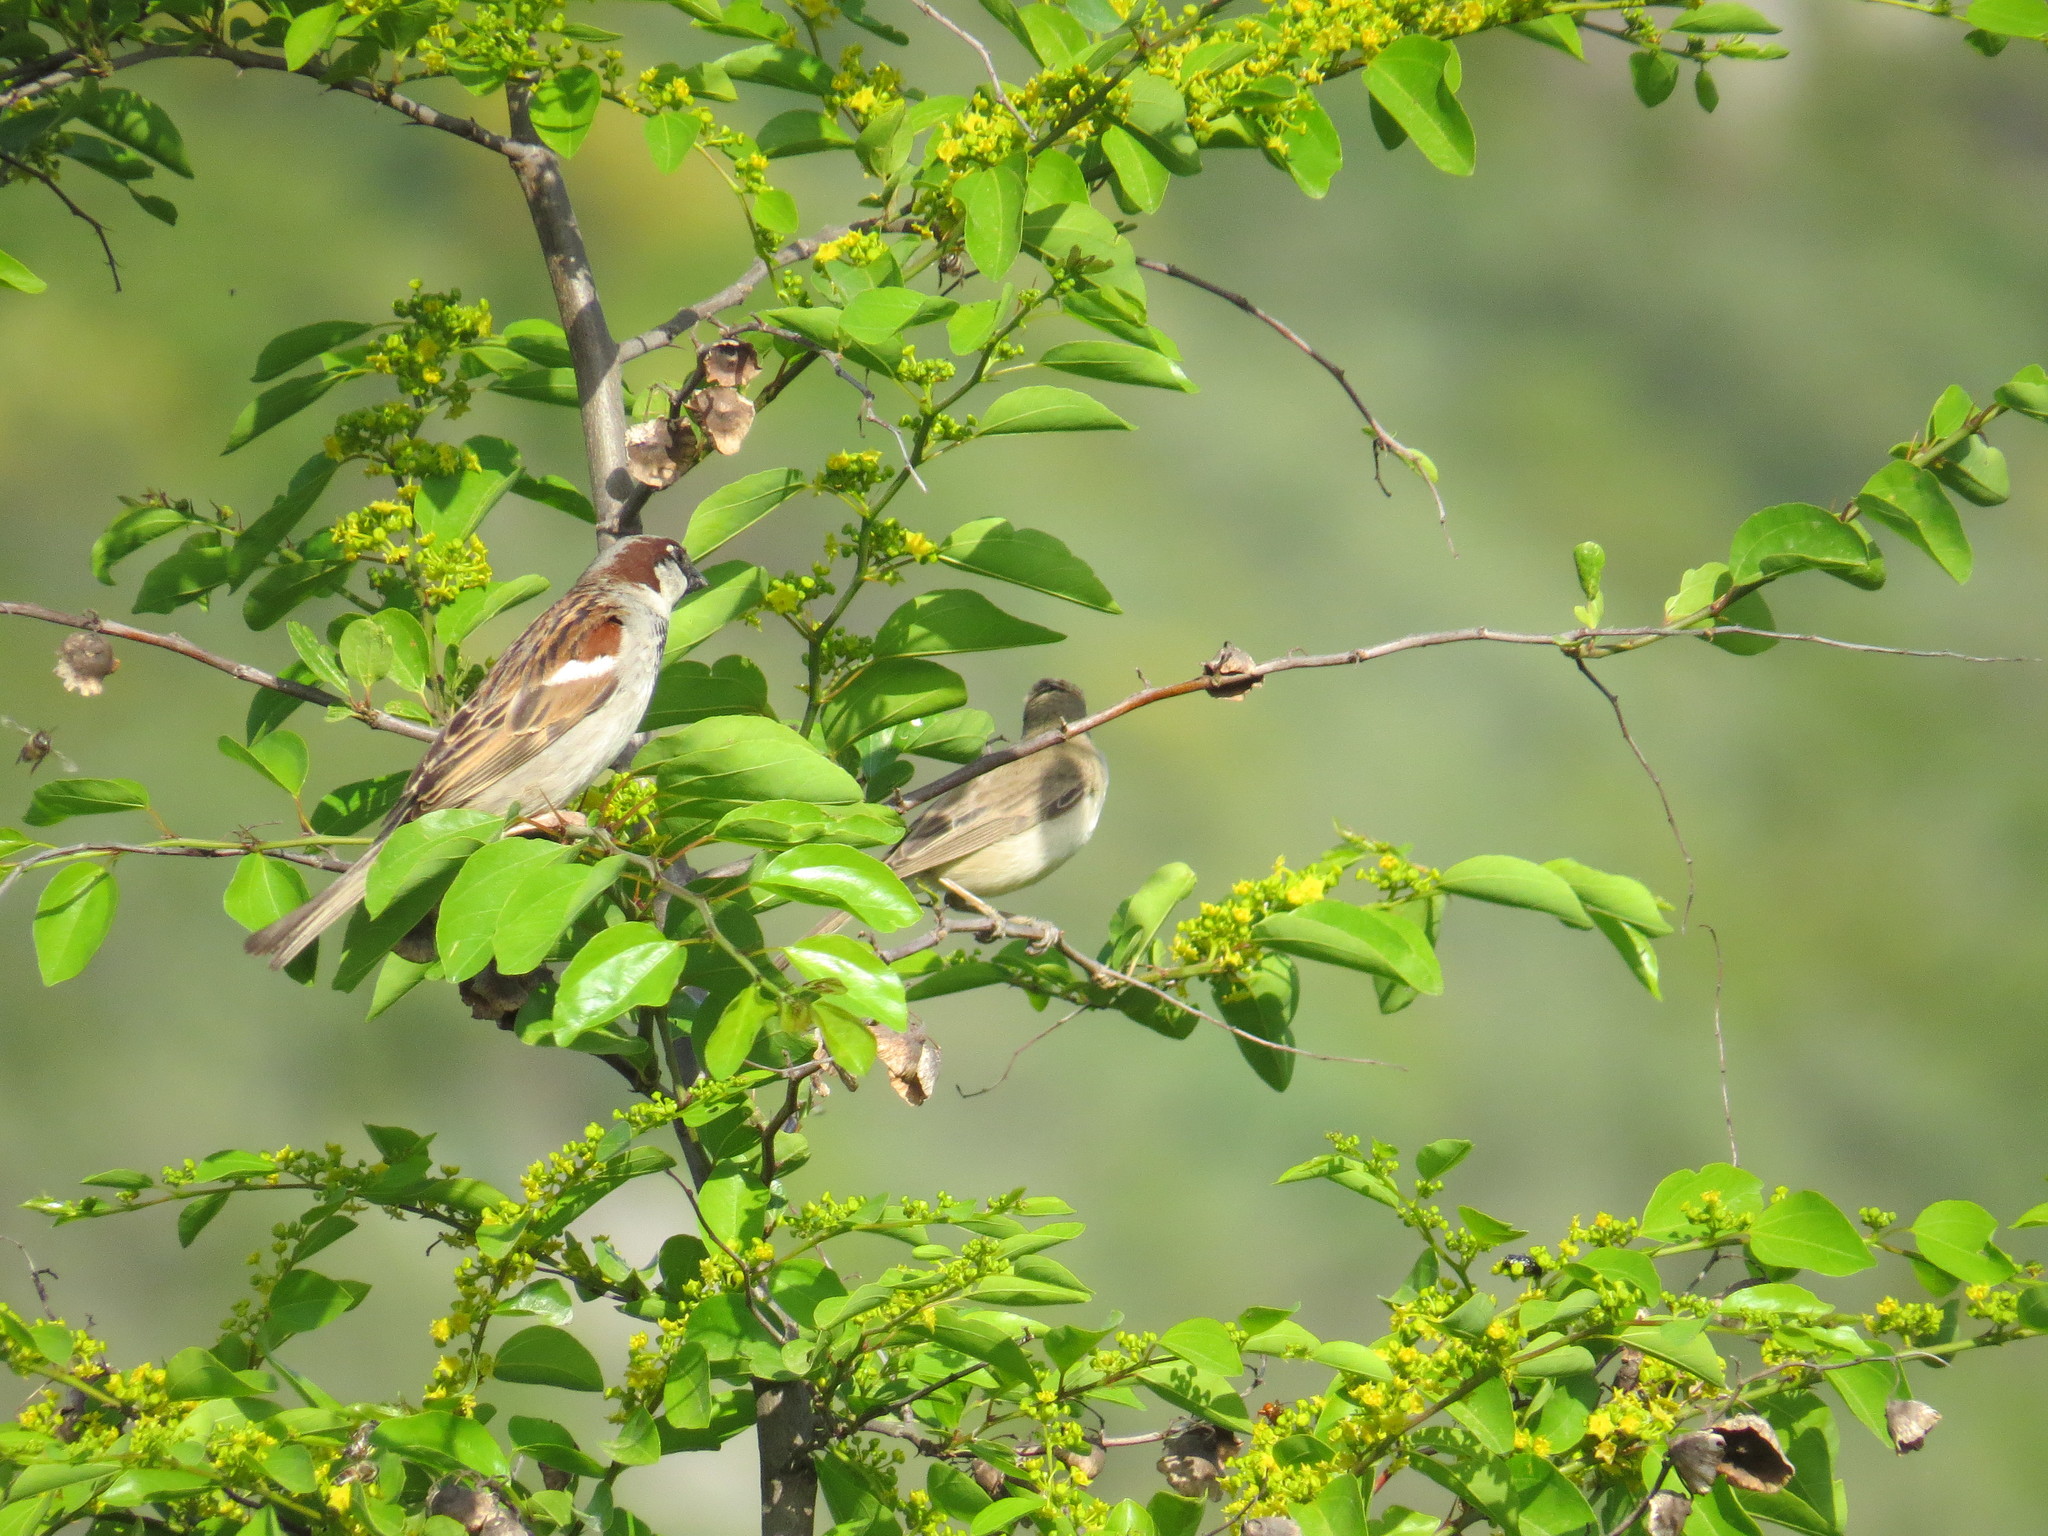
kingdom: Animalia
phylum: Chordata
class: Aves
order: Passeriformes
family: Passeridae
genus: Passer
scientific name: Passer domesticus
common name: House sparrow
